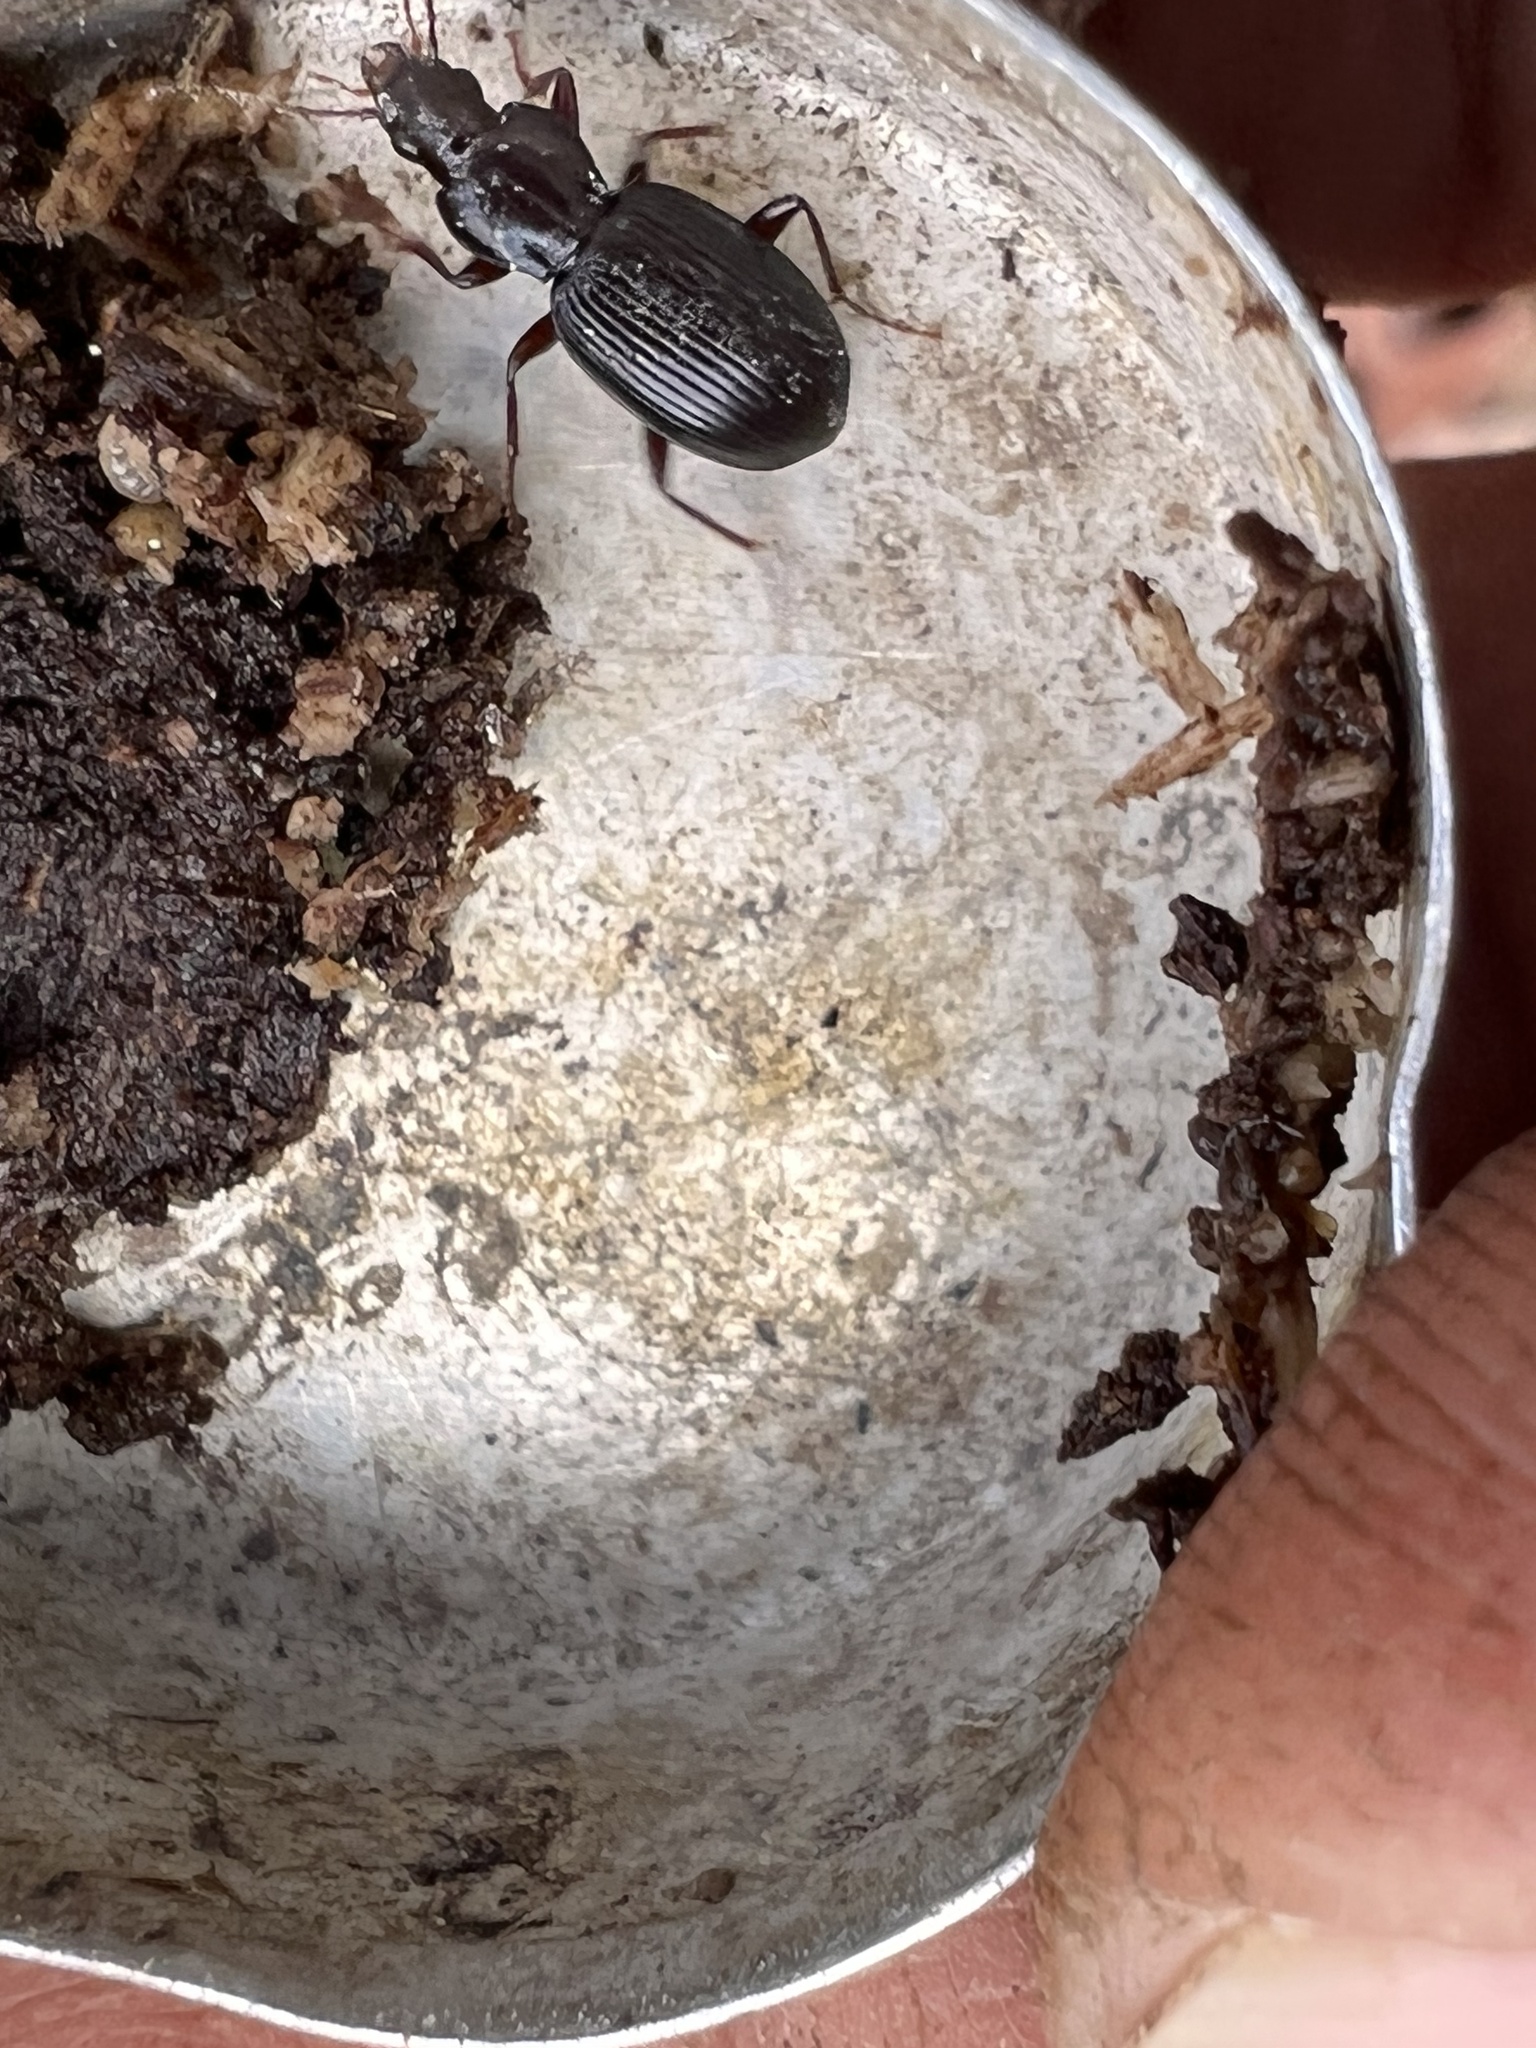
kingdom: Animalia
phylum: Arthropoda
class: Insecta
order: Coleoptera
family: Carabidae
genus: Gastrellarius
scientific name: Gastrellarius honestus
